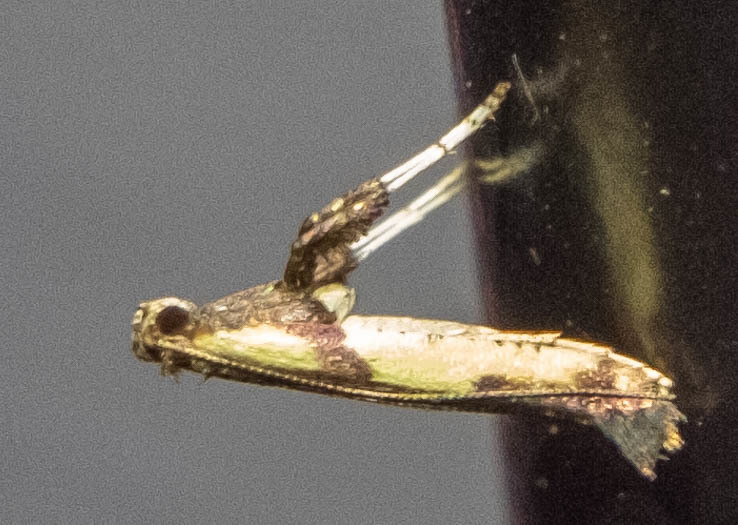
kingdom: Animalia
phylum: Arthropoda
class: Insecta
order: Lepidoptera
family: Gracillariidae
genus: Caloptilia
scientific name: Caloptilia blandella
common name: Walnut caloptilia moth
